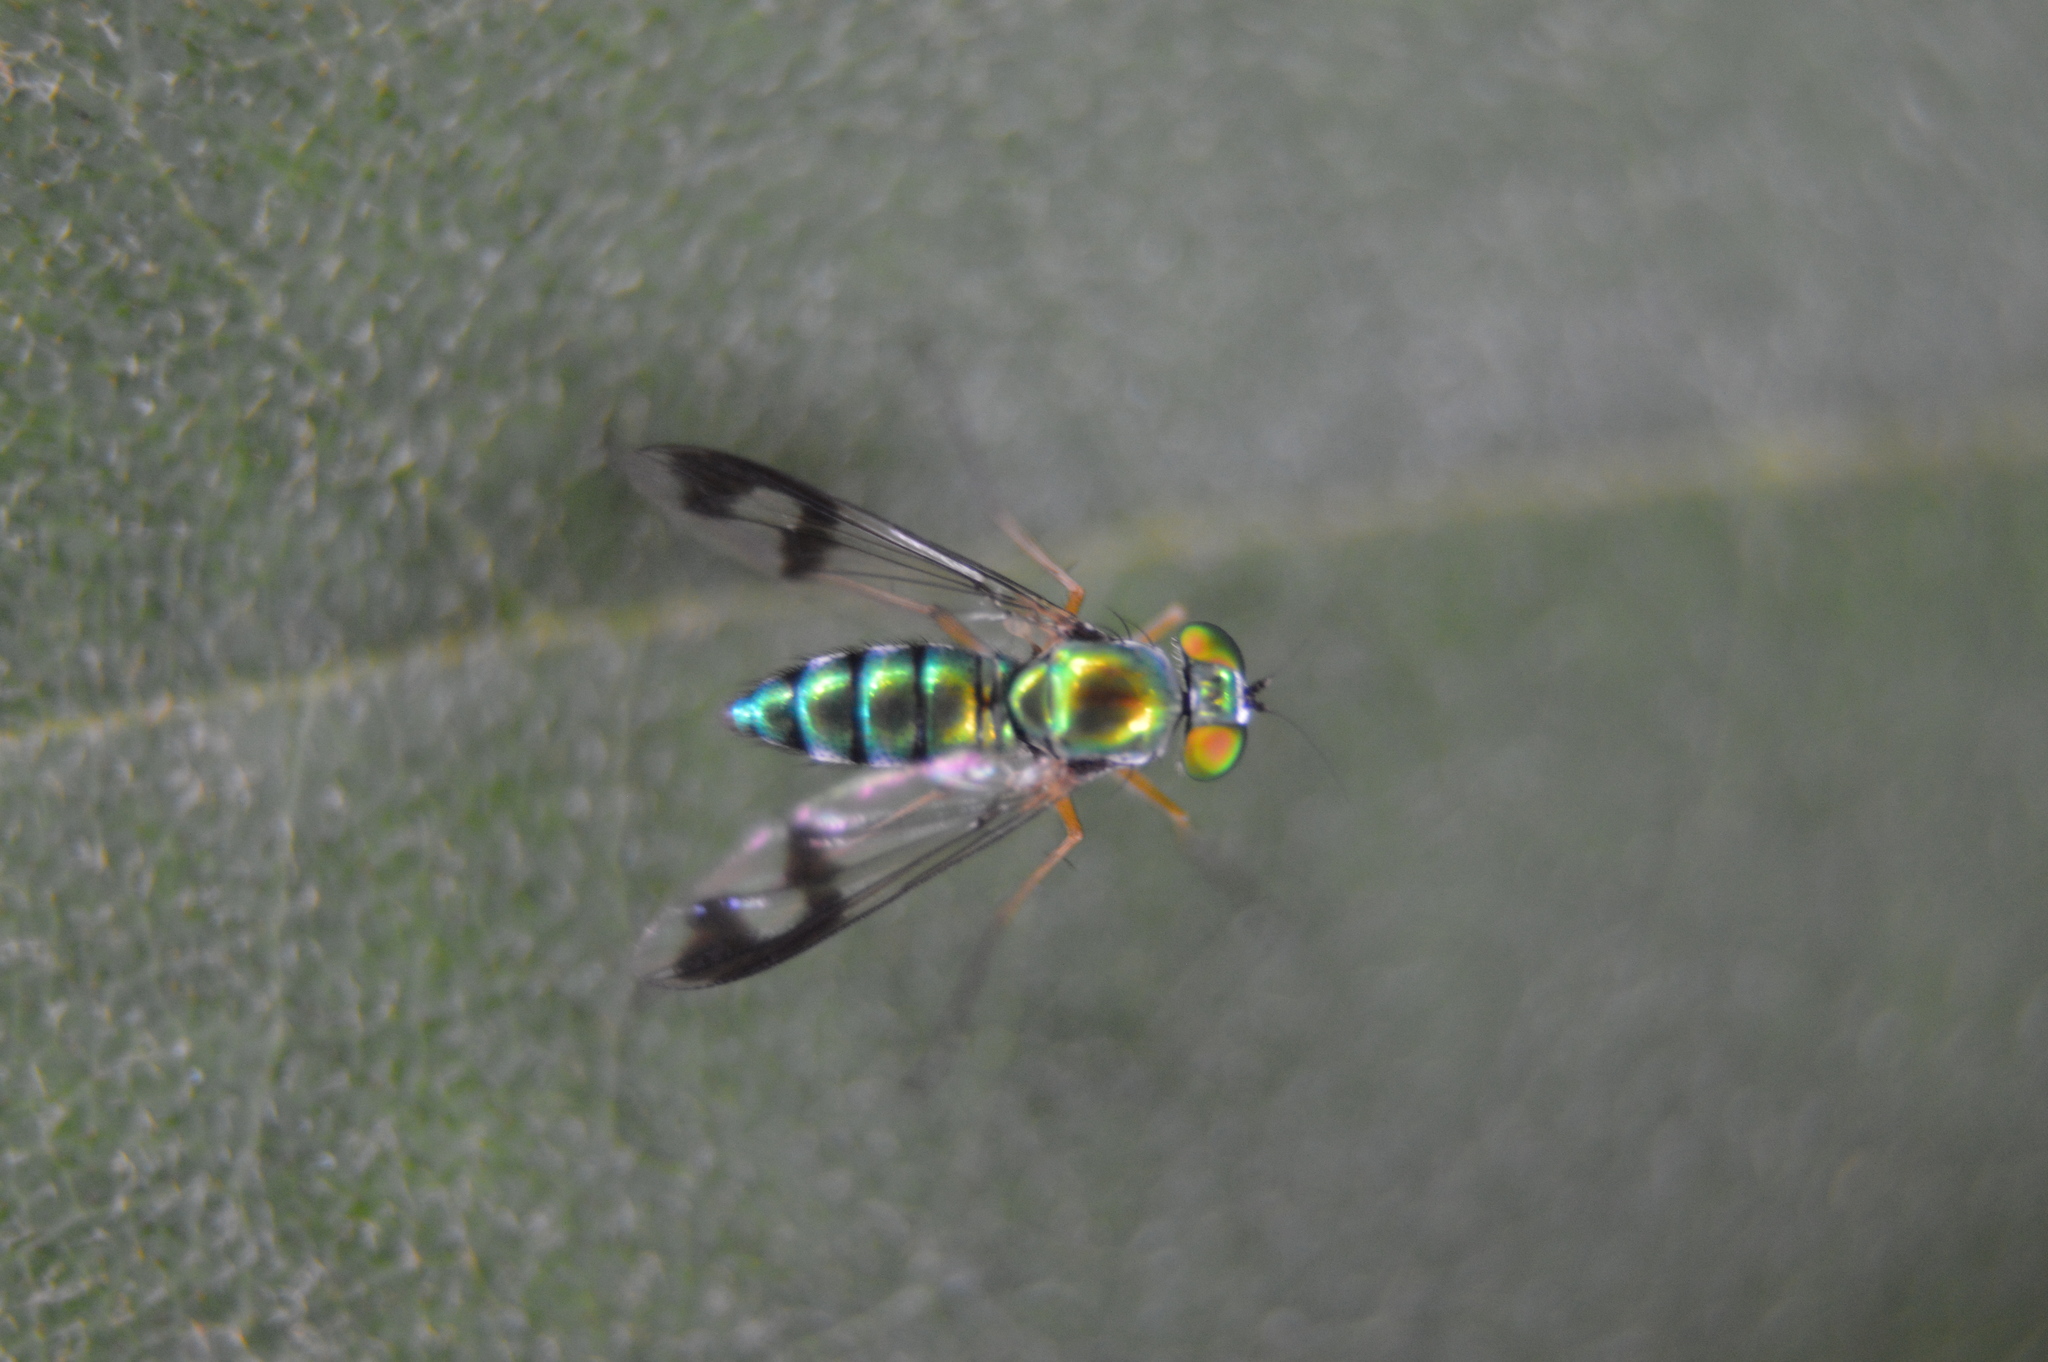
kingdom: Animalia
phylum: Arthropoda
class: Insecta
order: Diptera
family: Dolichopodidae
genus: Condylostylus
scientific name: Condylostylus
